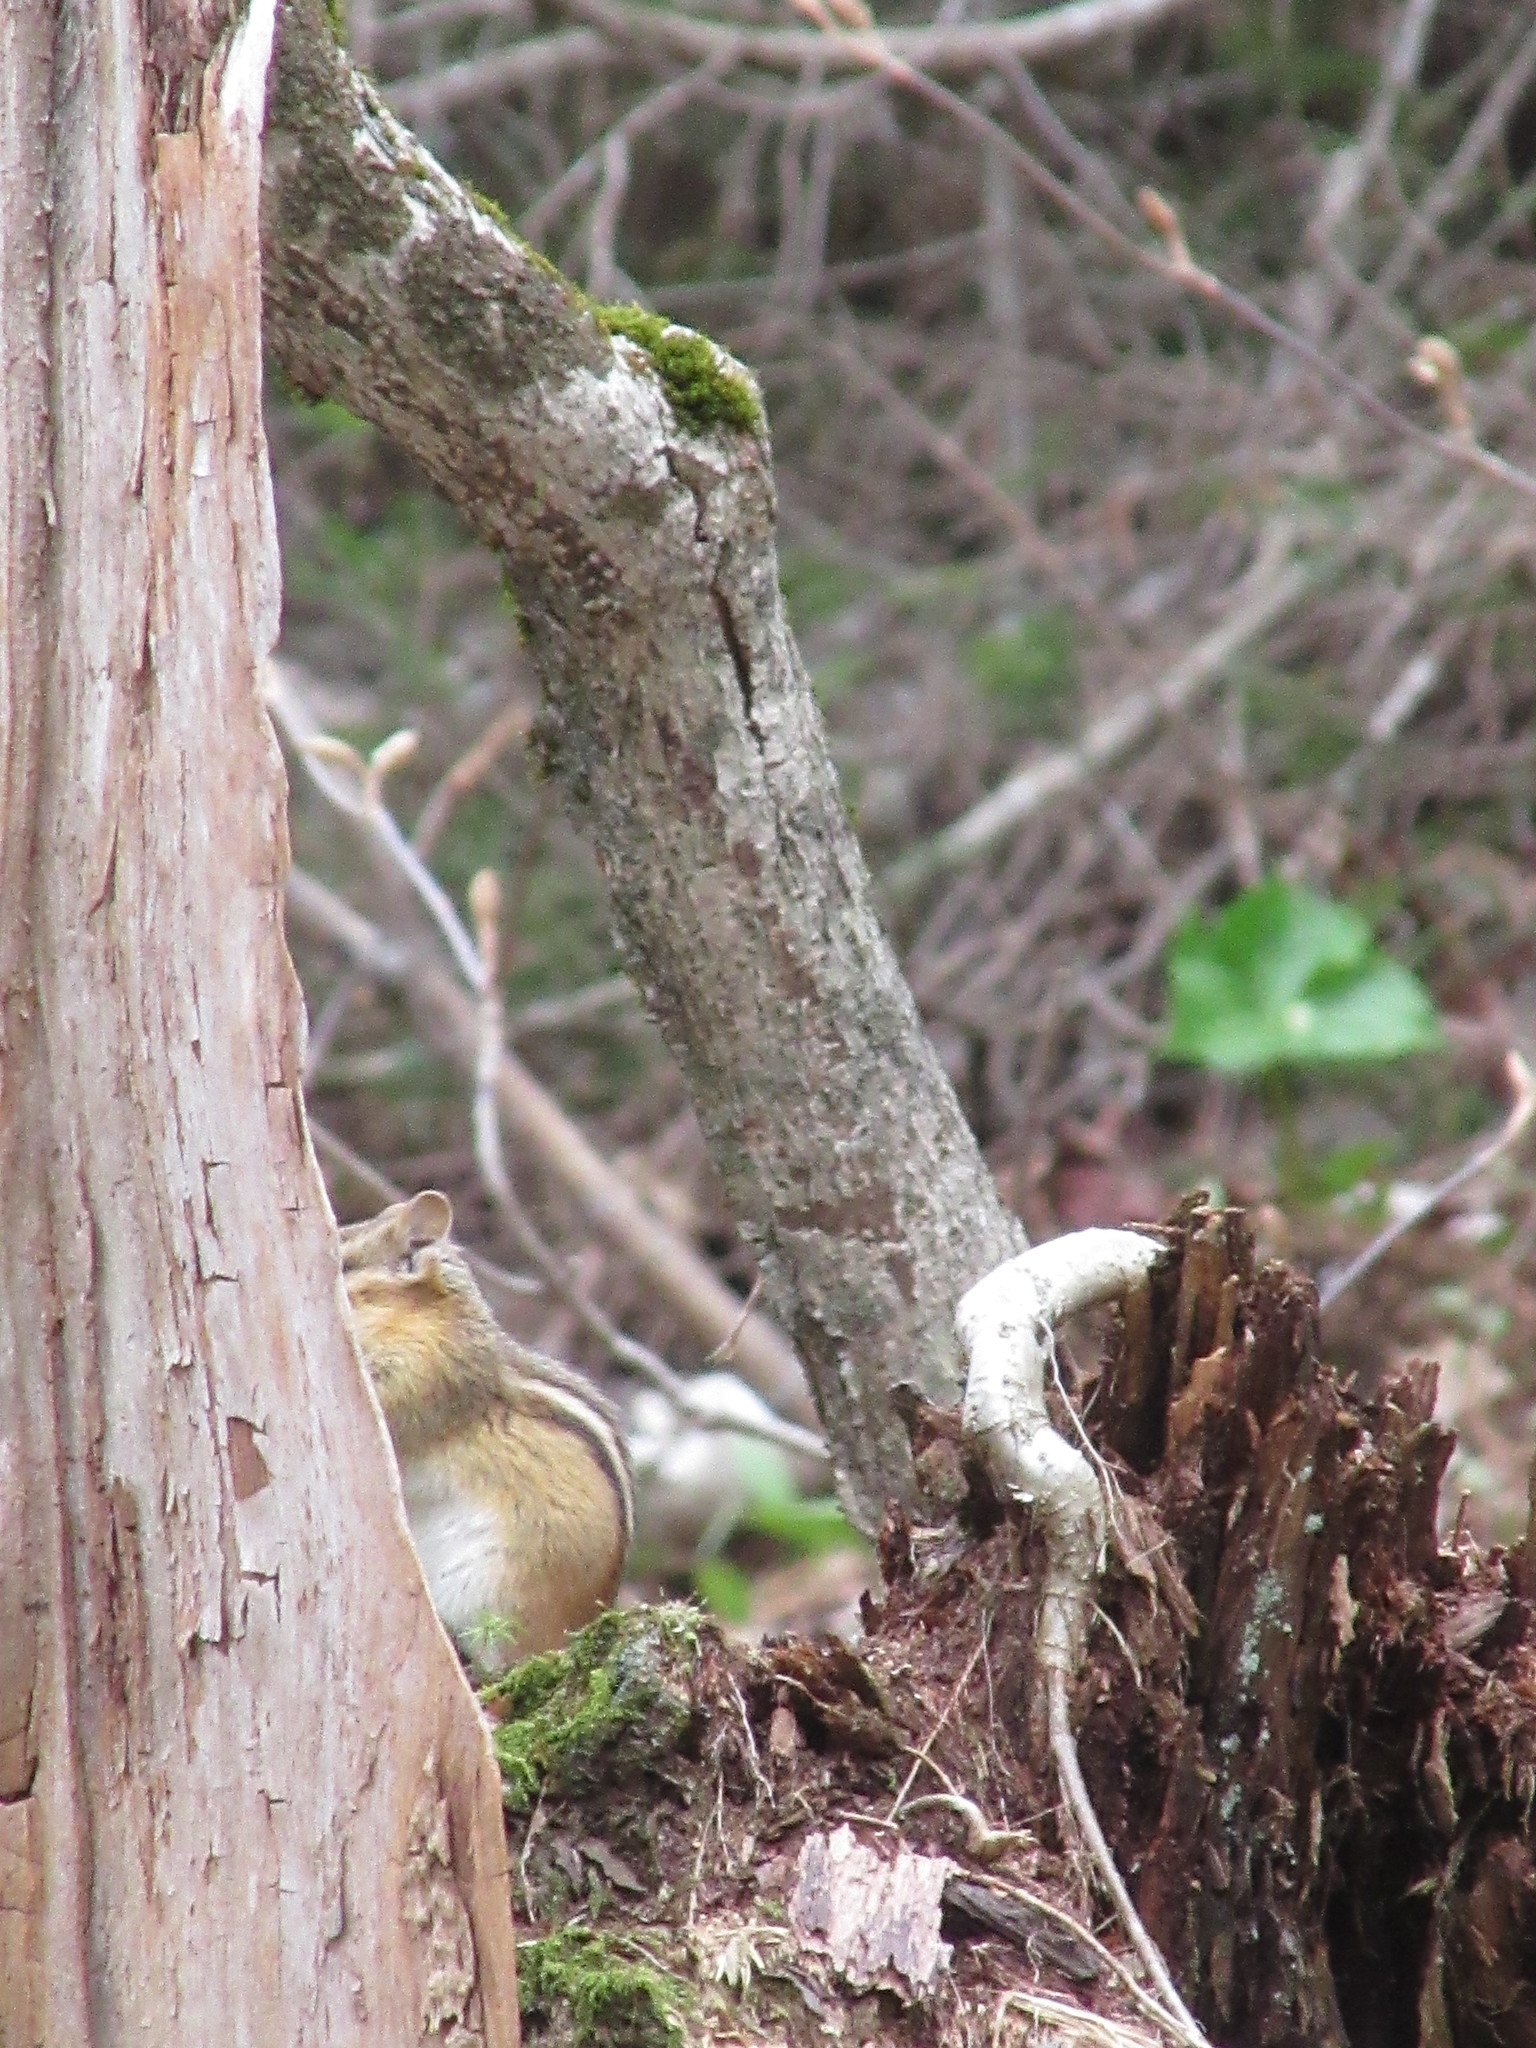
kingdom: Animalia
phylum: Chordata
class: Mammalia
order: Rodentia
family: Sciuridae
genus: Tamias
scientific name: Tamias striatus
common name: Eastern chipmunk
